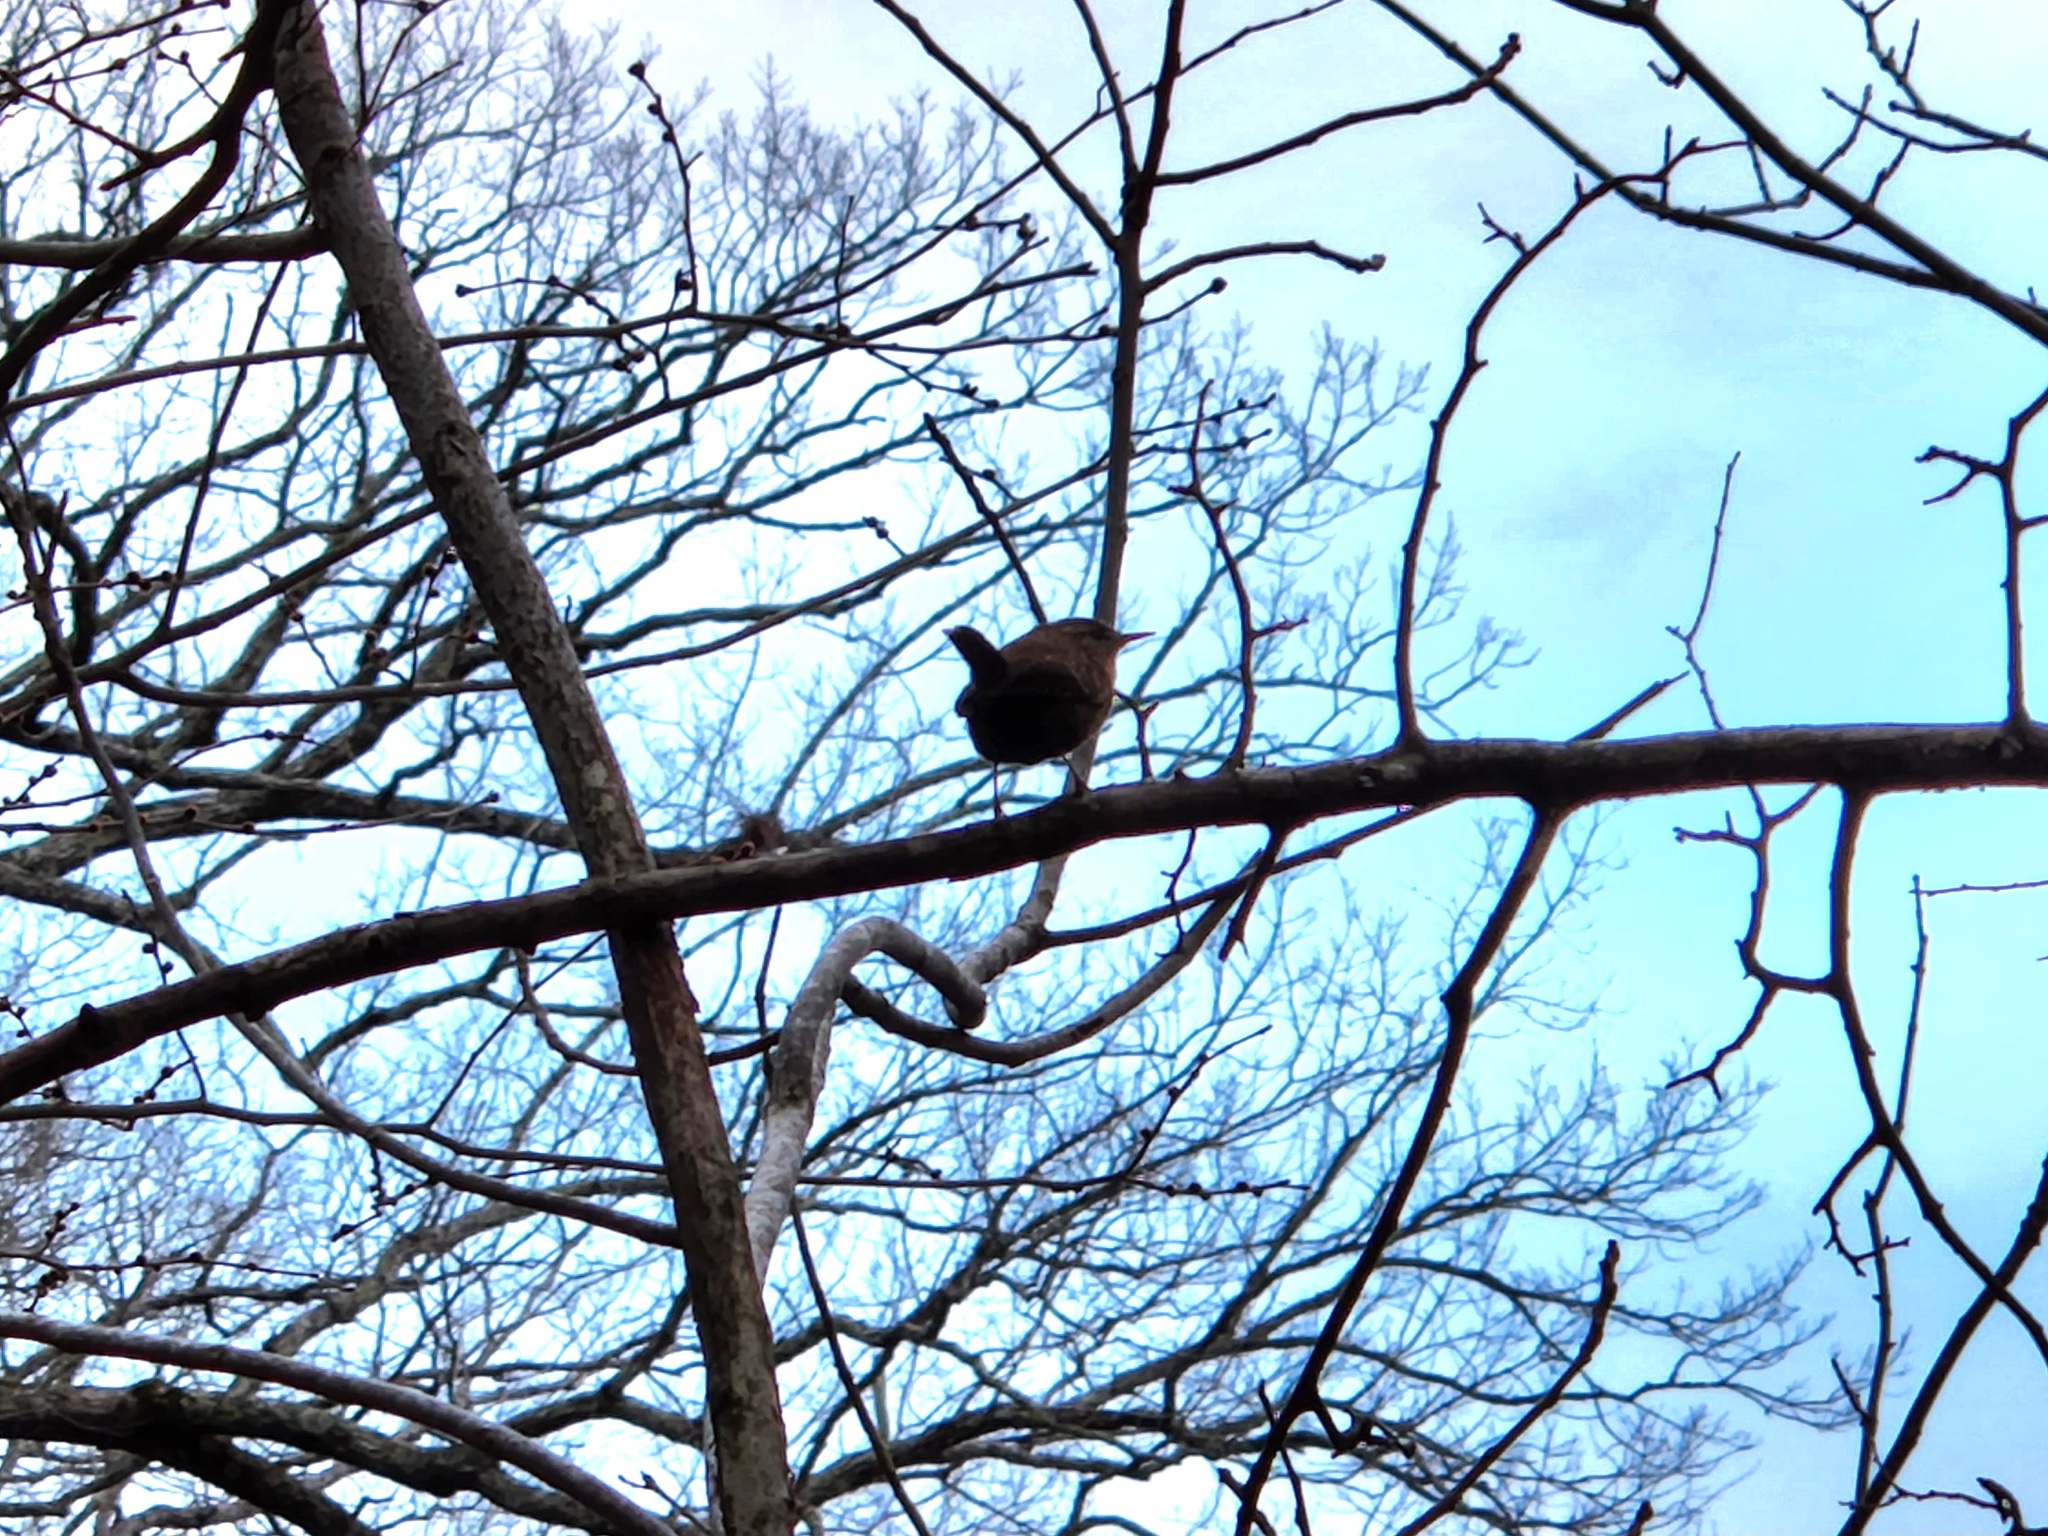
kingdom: Animalia
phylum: Chordata
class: Aves
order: Passeriformes
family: Troglodytidae
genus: Thryothorus
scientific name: Thryothorus ludovicianus
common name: Carolina wren
